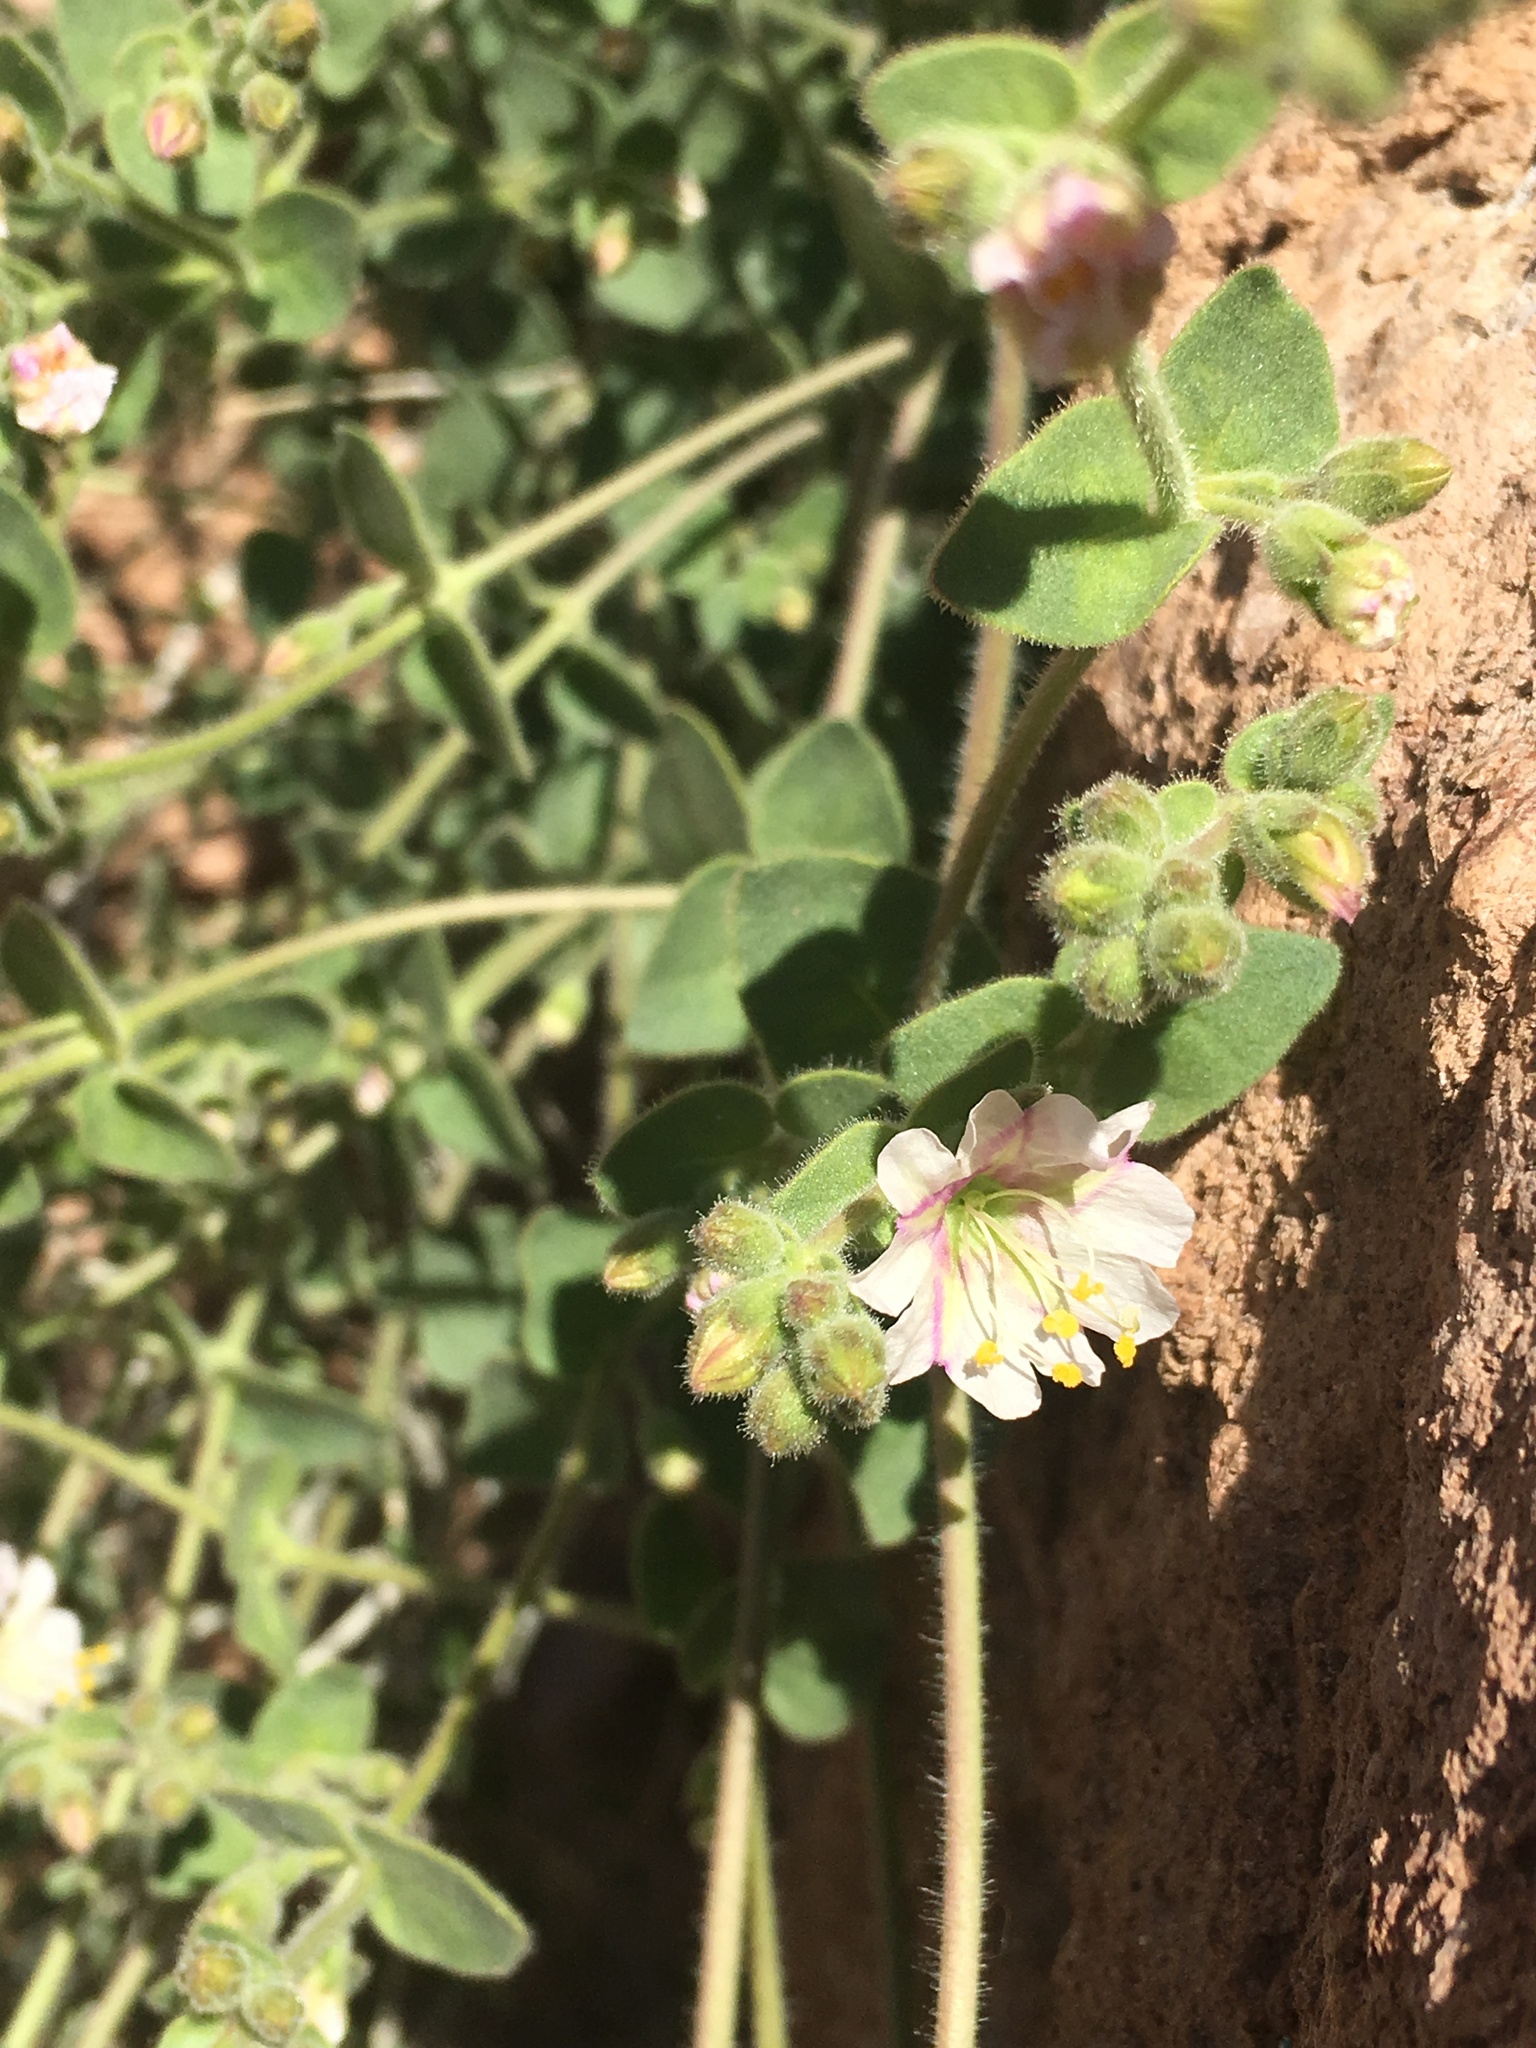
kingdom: Plantae
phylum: Tracheophyta
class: Magnoliopsida
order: Caryophyllales
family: Nyctaginaceae
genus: Mirabilis
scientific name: Mirabilis laevis
